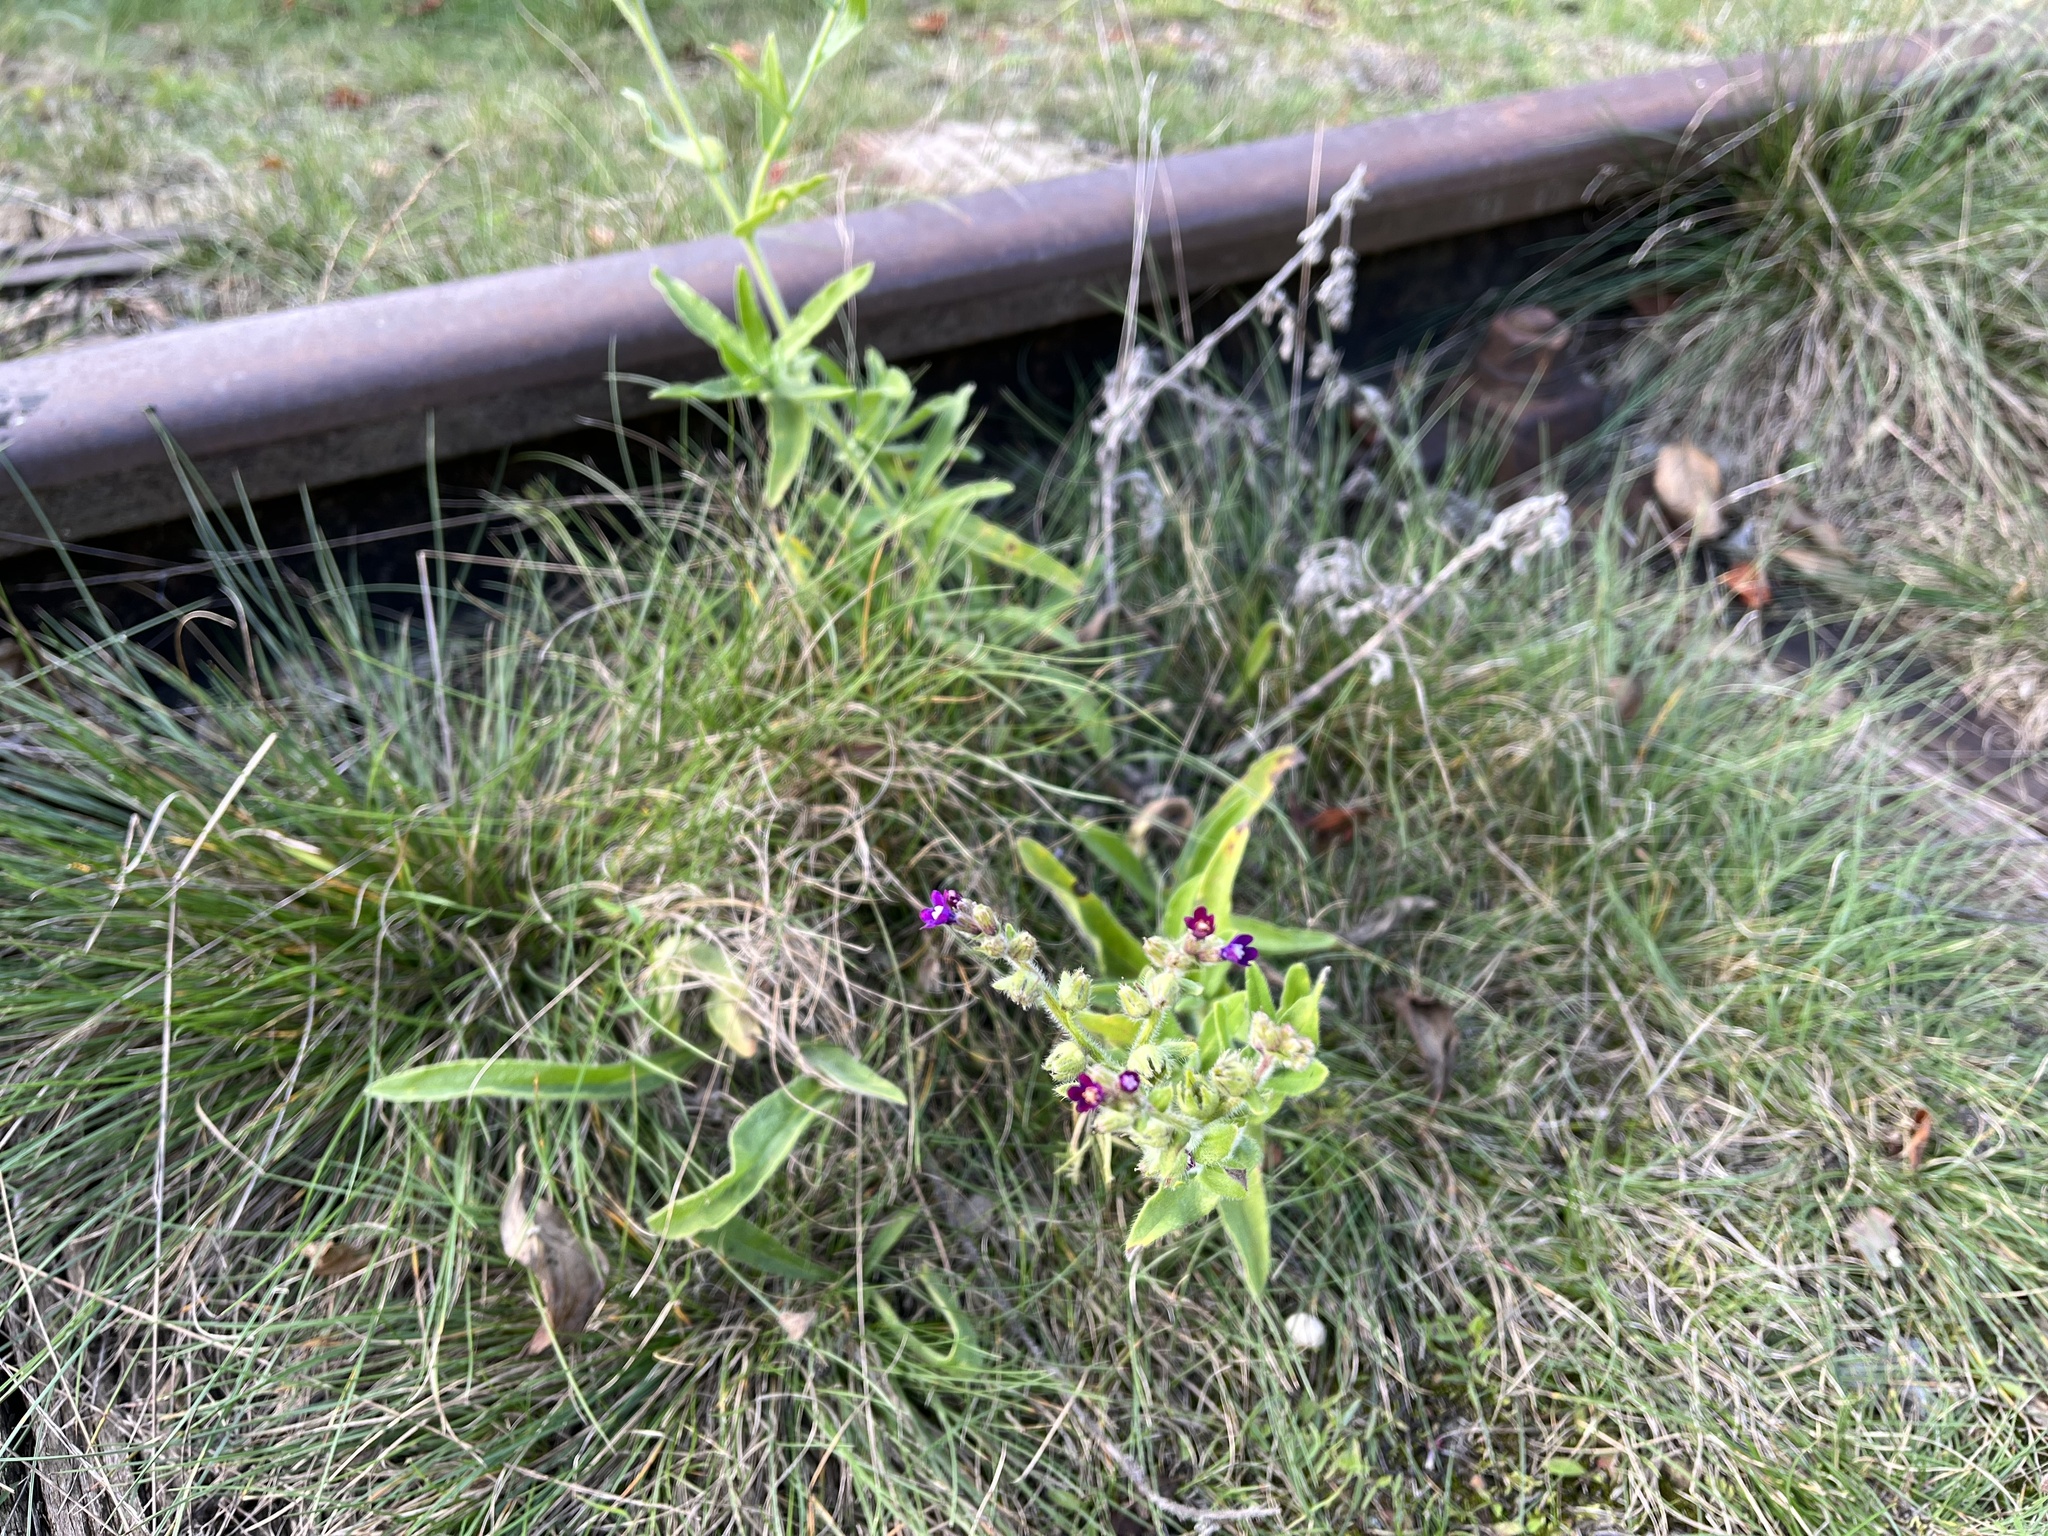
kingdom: Plantae
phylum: Tracheophyta
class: Magnoliopsida
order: Boraginales
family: Boraginaceae
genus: Anchusa
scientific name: Anchusa officinalis
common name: Alkanet
